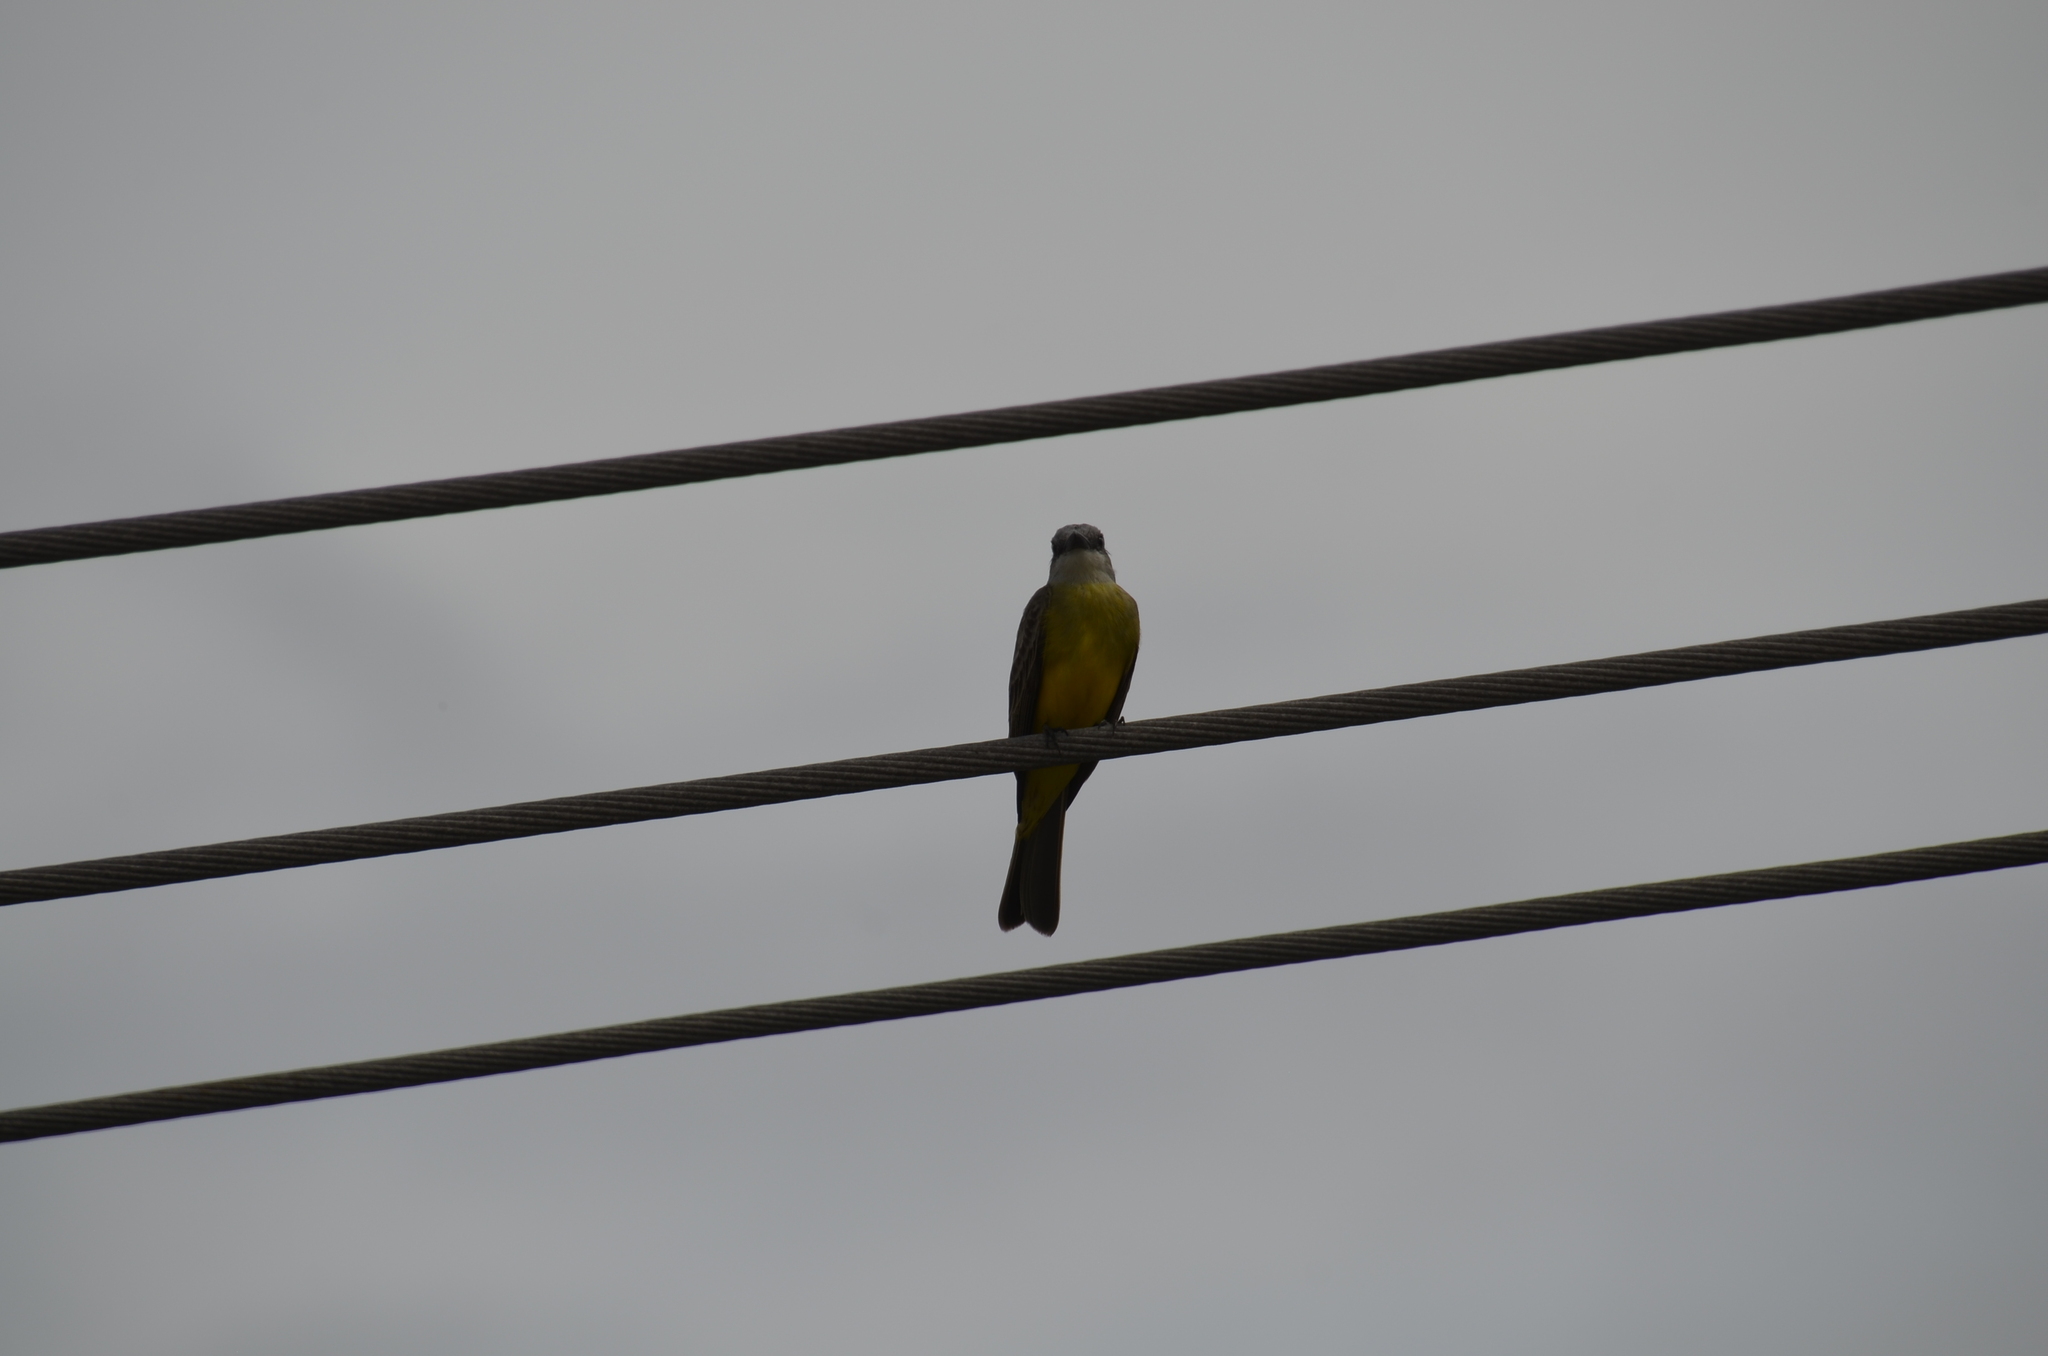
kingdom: Animalia
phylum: Chordata
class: Aves
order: Passeriformes
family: Tyrannidae
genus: Tyrannus
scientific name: Tyrannus melancholicus
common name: Tropical kingbird
